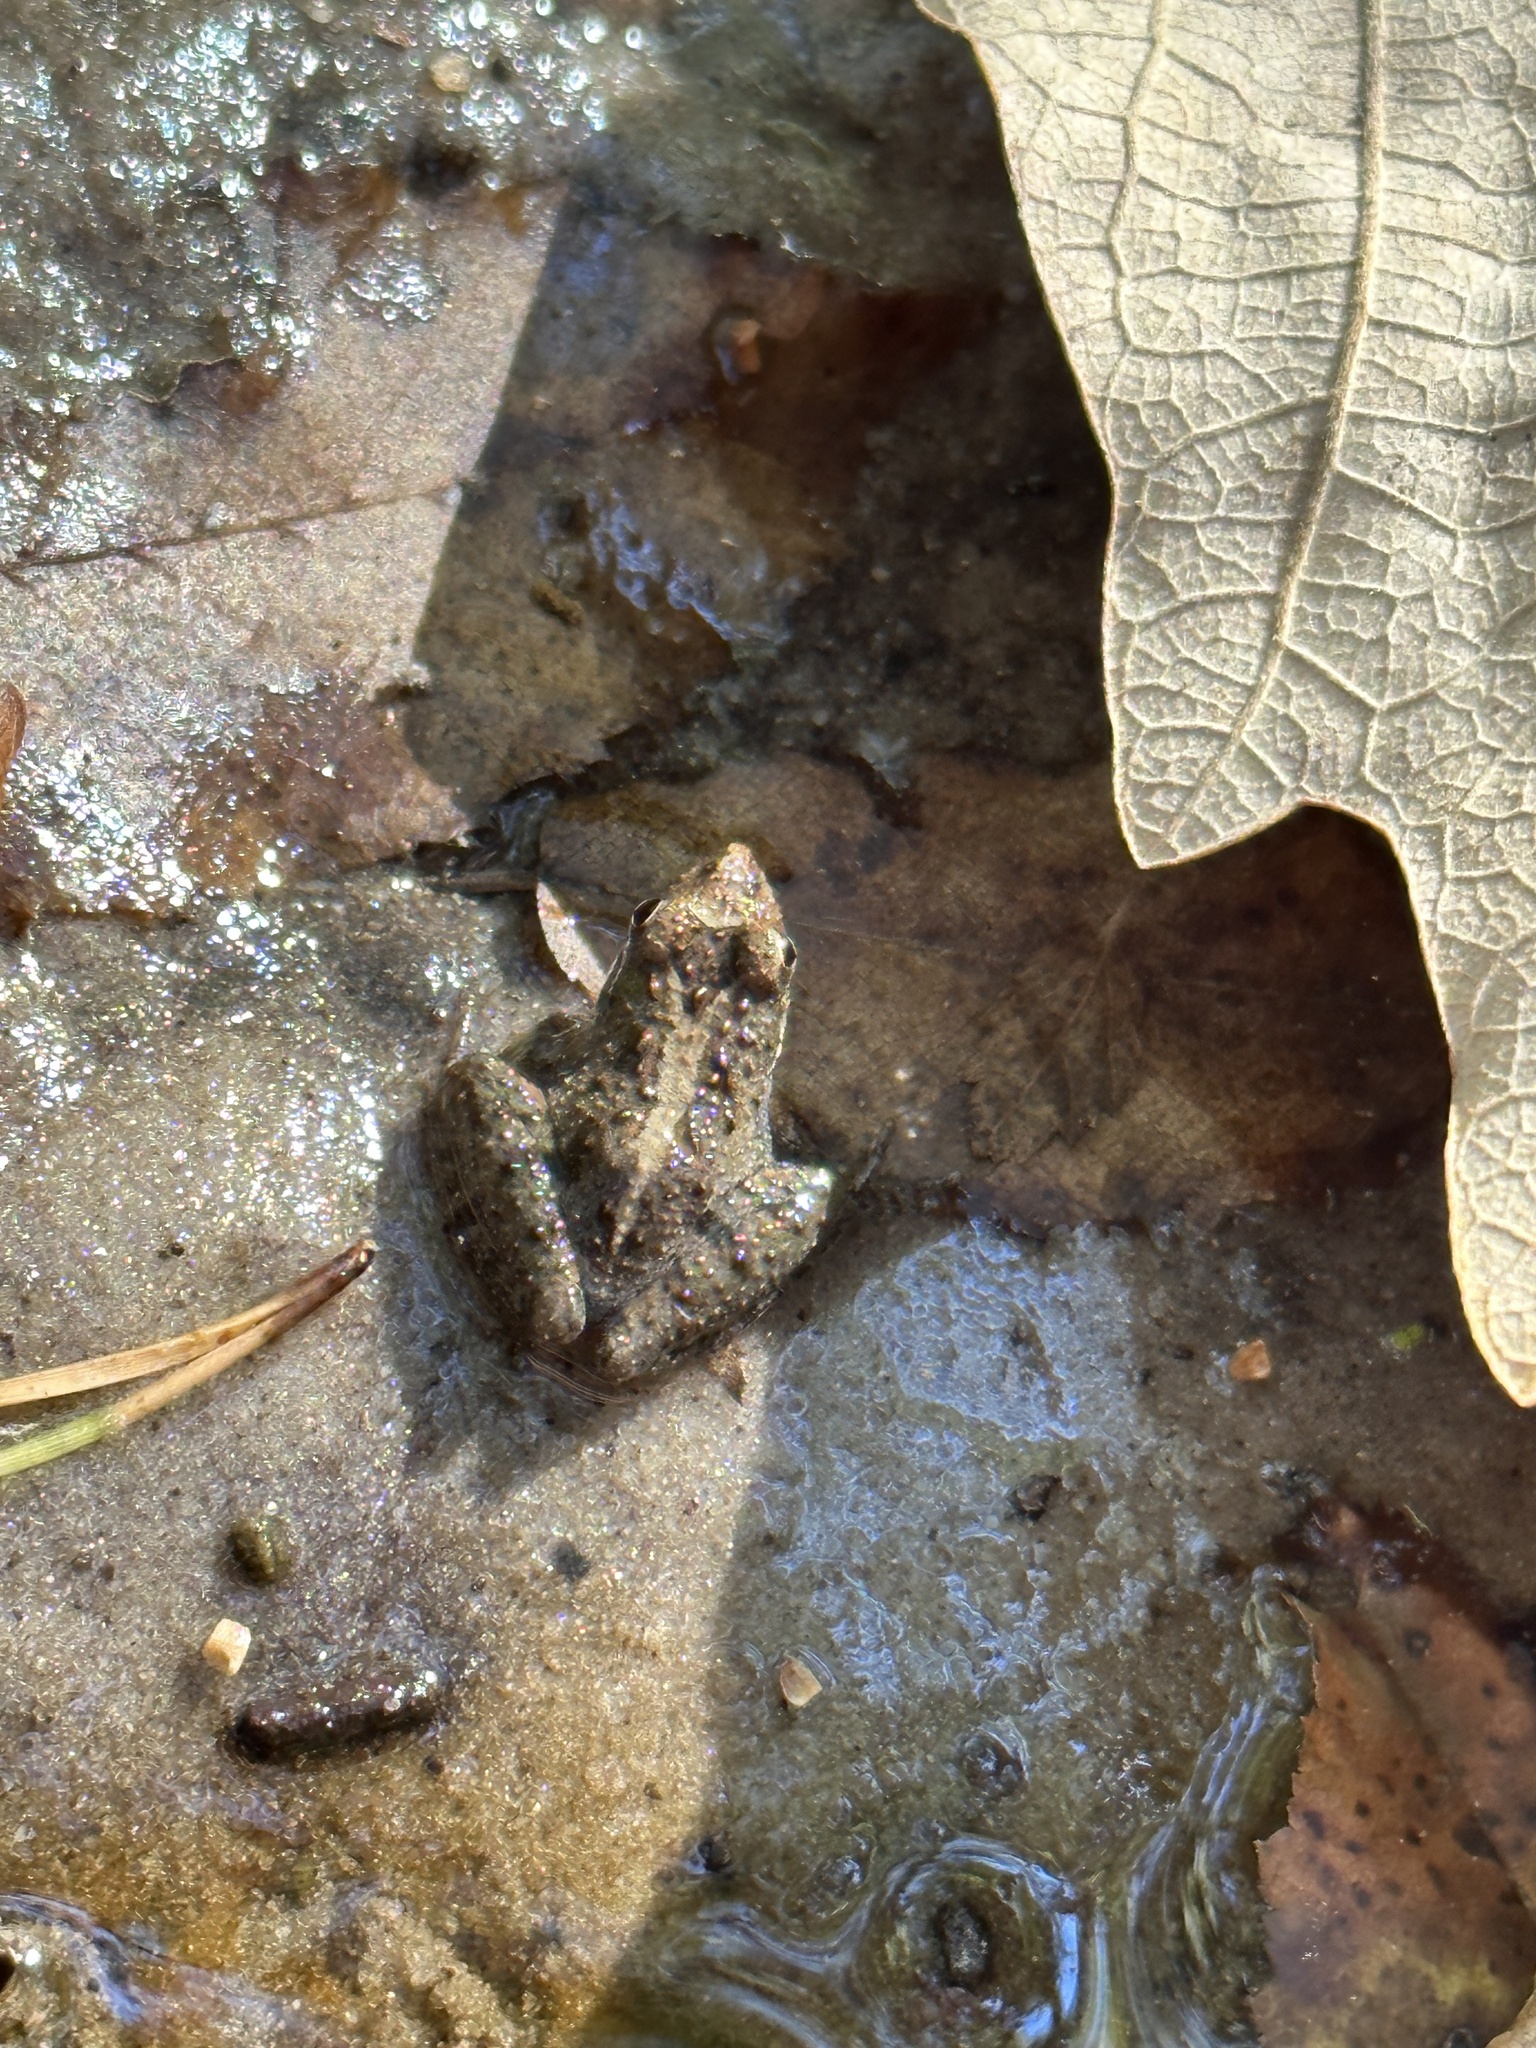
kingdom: Animalia
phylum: Chordata
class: Amphibia
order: Anura
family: Hylidae
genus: Acris
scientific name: Acris gryllus
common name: Southern cricket frog
